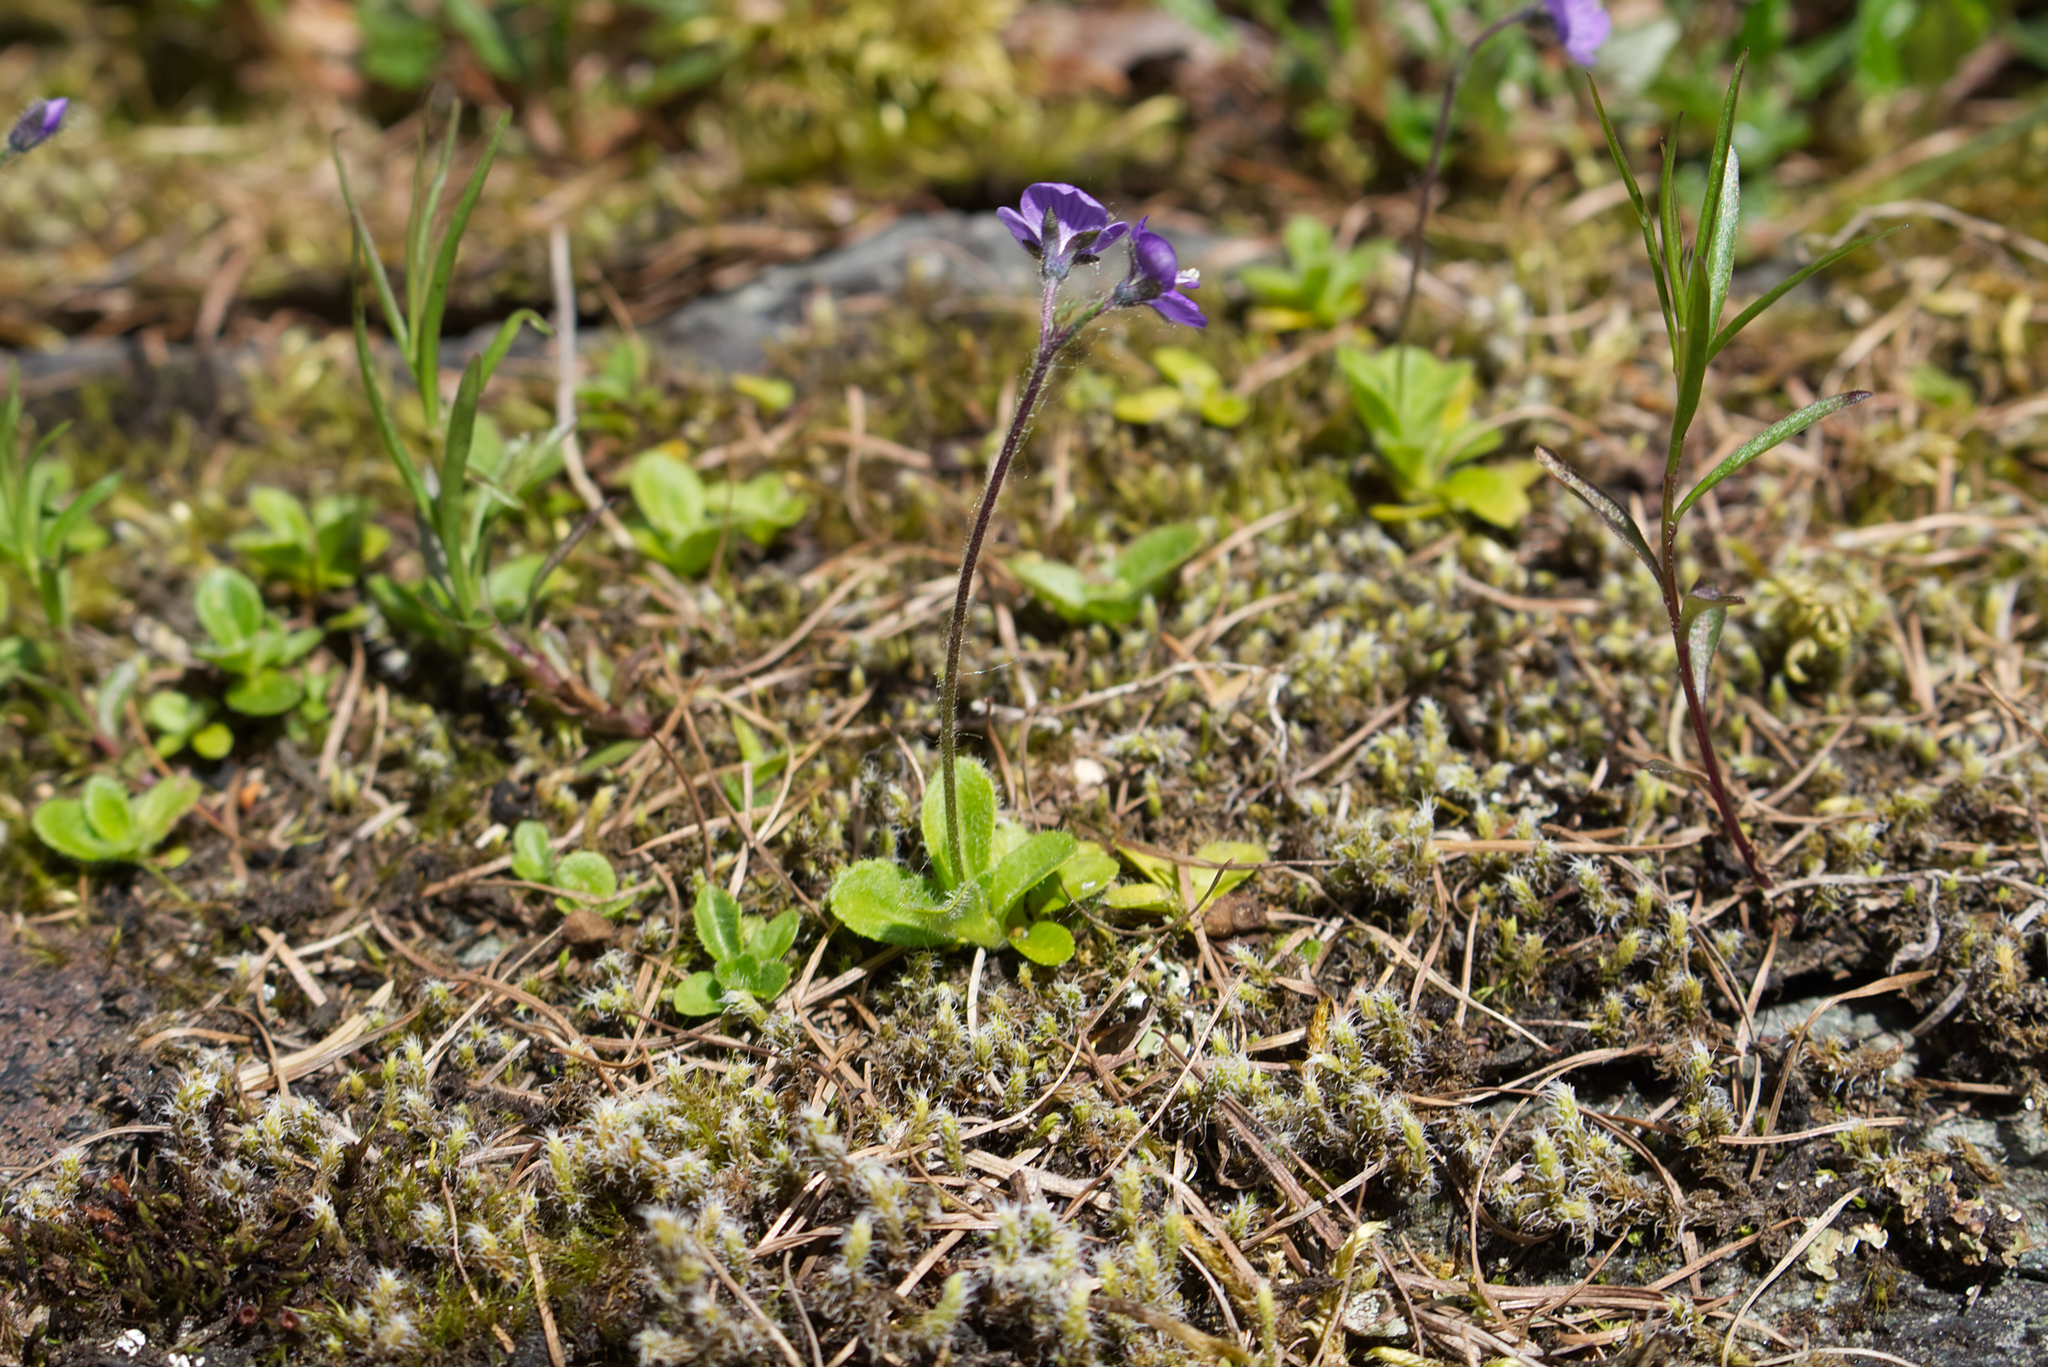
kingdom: Plantae
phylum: Tracheophyta
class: Magnoliopsida
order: Lamiales
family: Plantaginaceae
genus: Veronica
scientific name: Veronica aphylla
